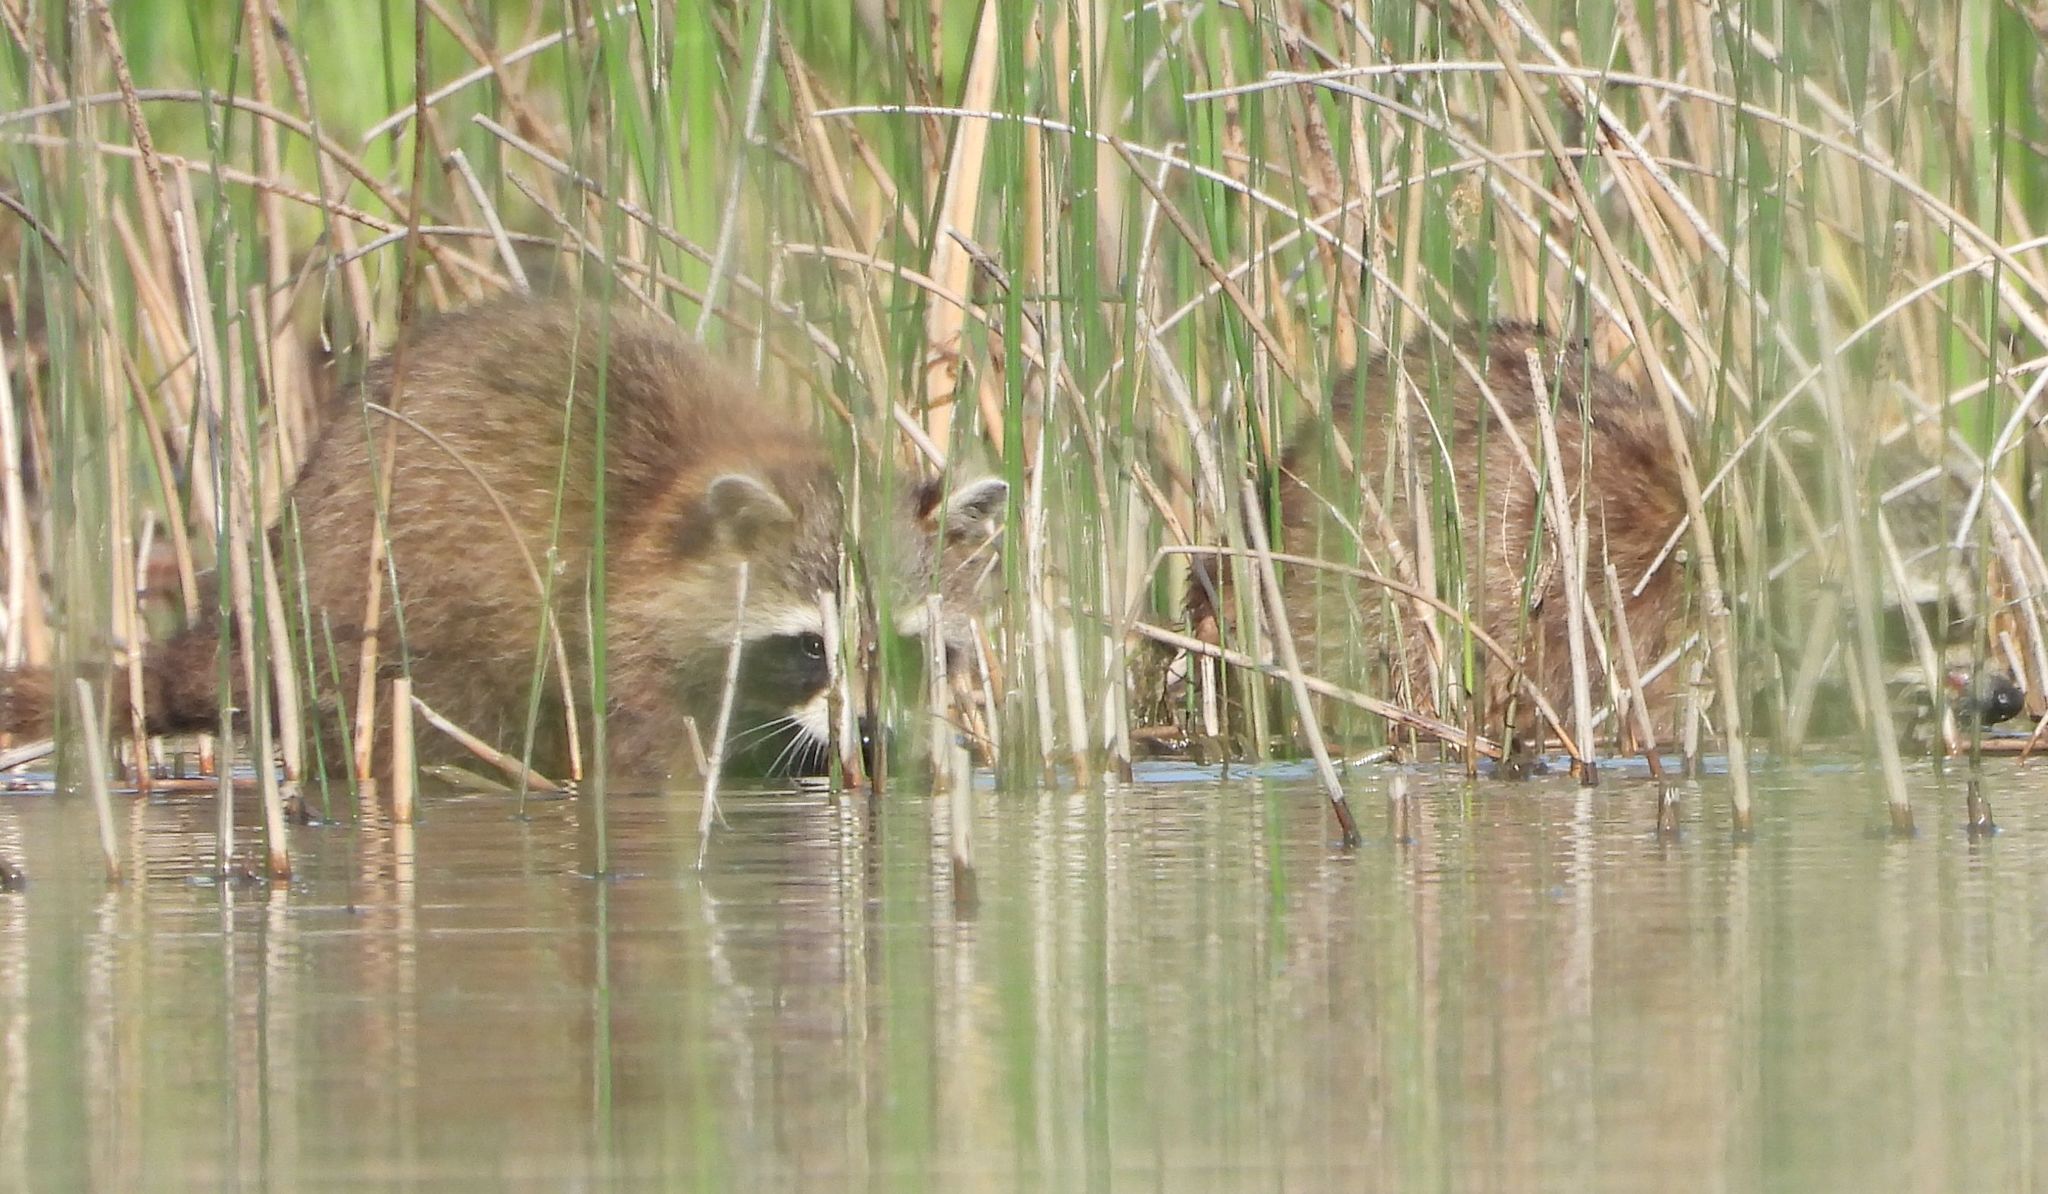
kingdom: Animalia
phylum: Chordata
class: Mammalia
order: Carnivora
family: Procyonidae
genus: Procyon
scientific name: Procyon lotor
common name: Raccoon
